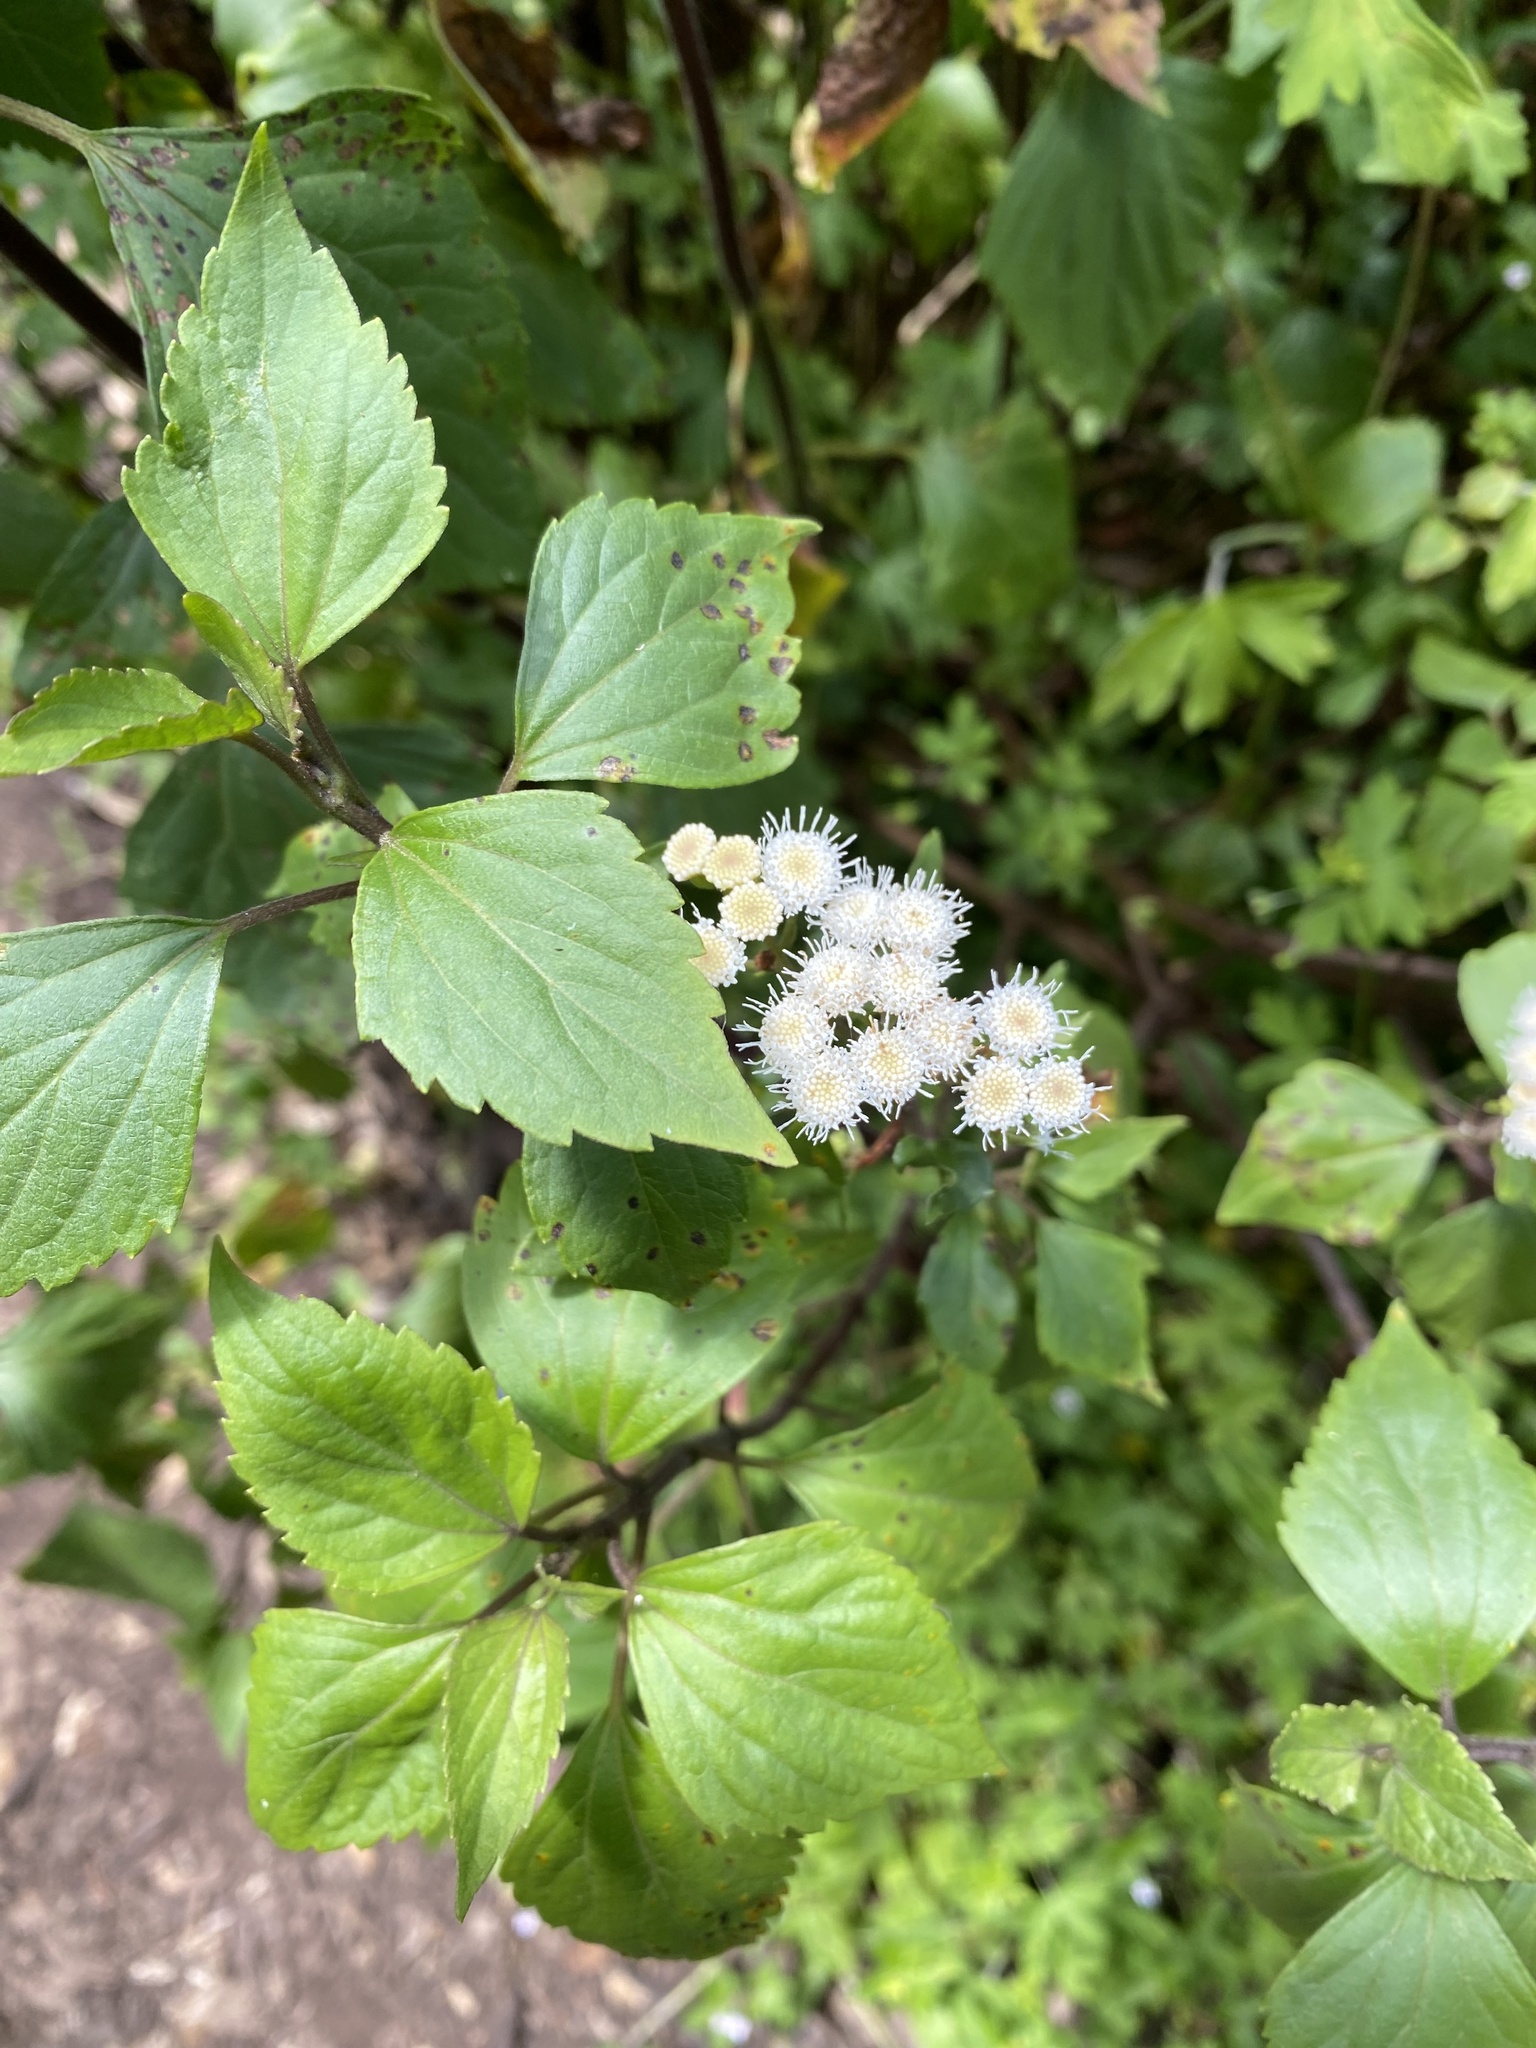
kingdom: Plantae
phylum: Tracheophyta
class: Magnoliopsida
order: Asterales
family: Asteraceae
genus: Ageratina
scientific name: Ageratina adenophora
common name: Sticky snakeroot
